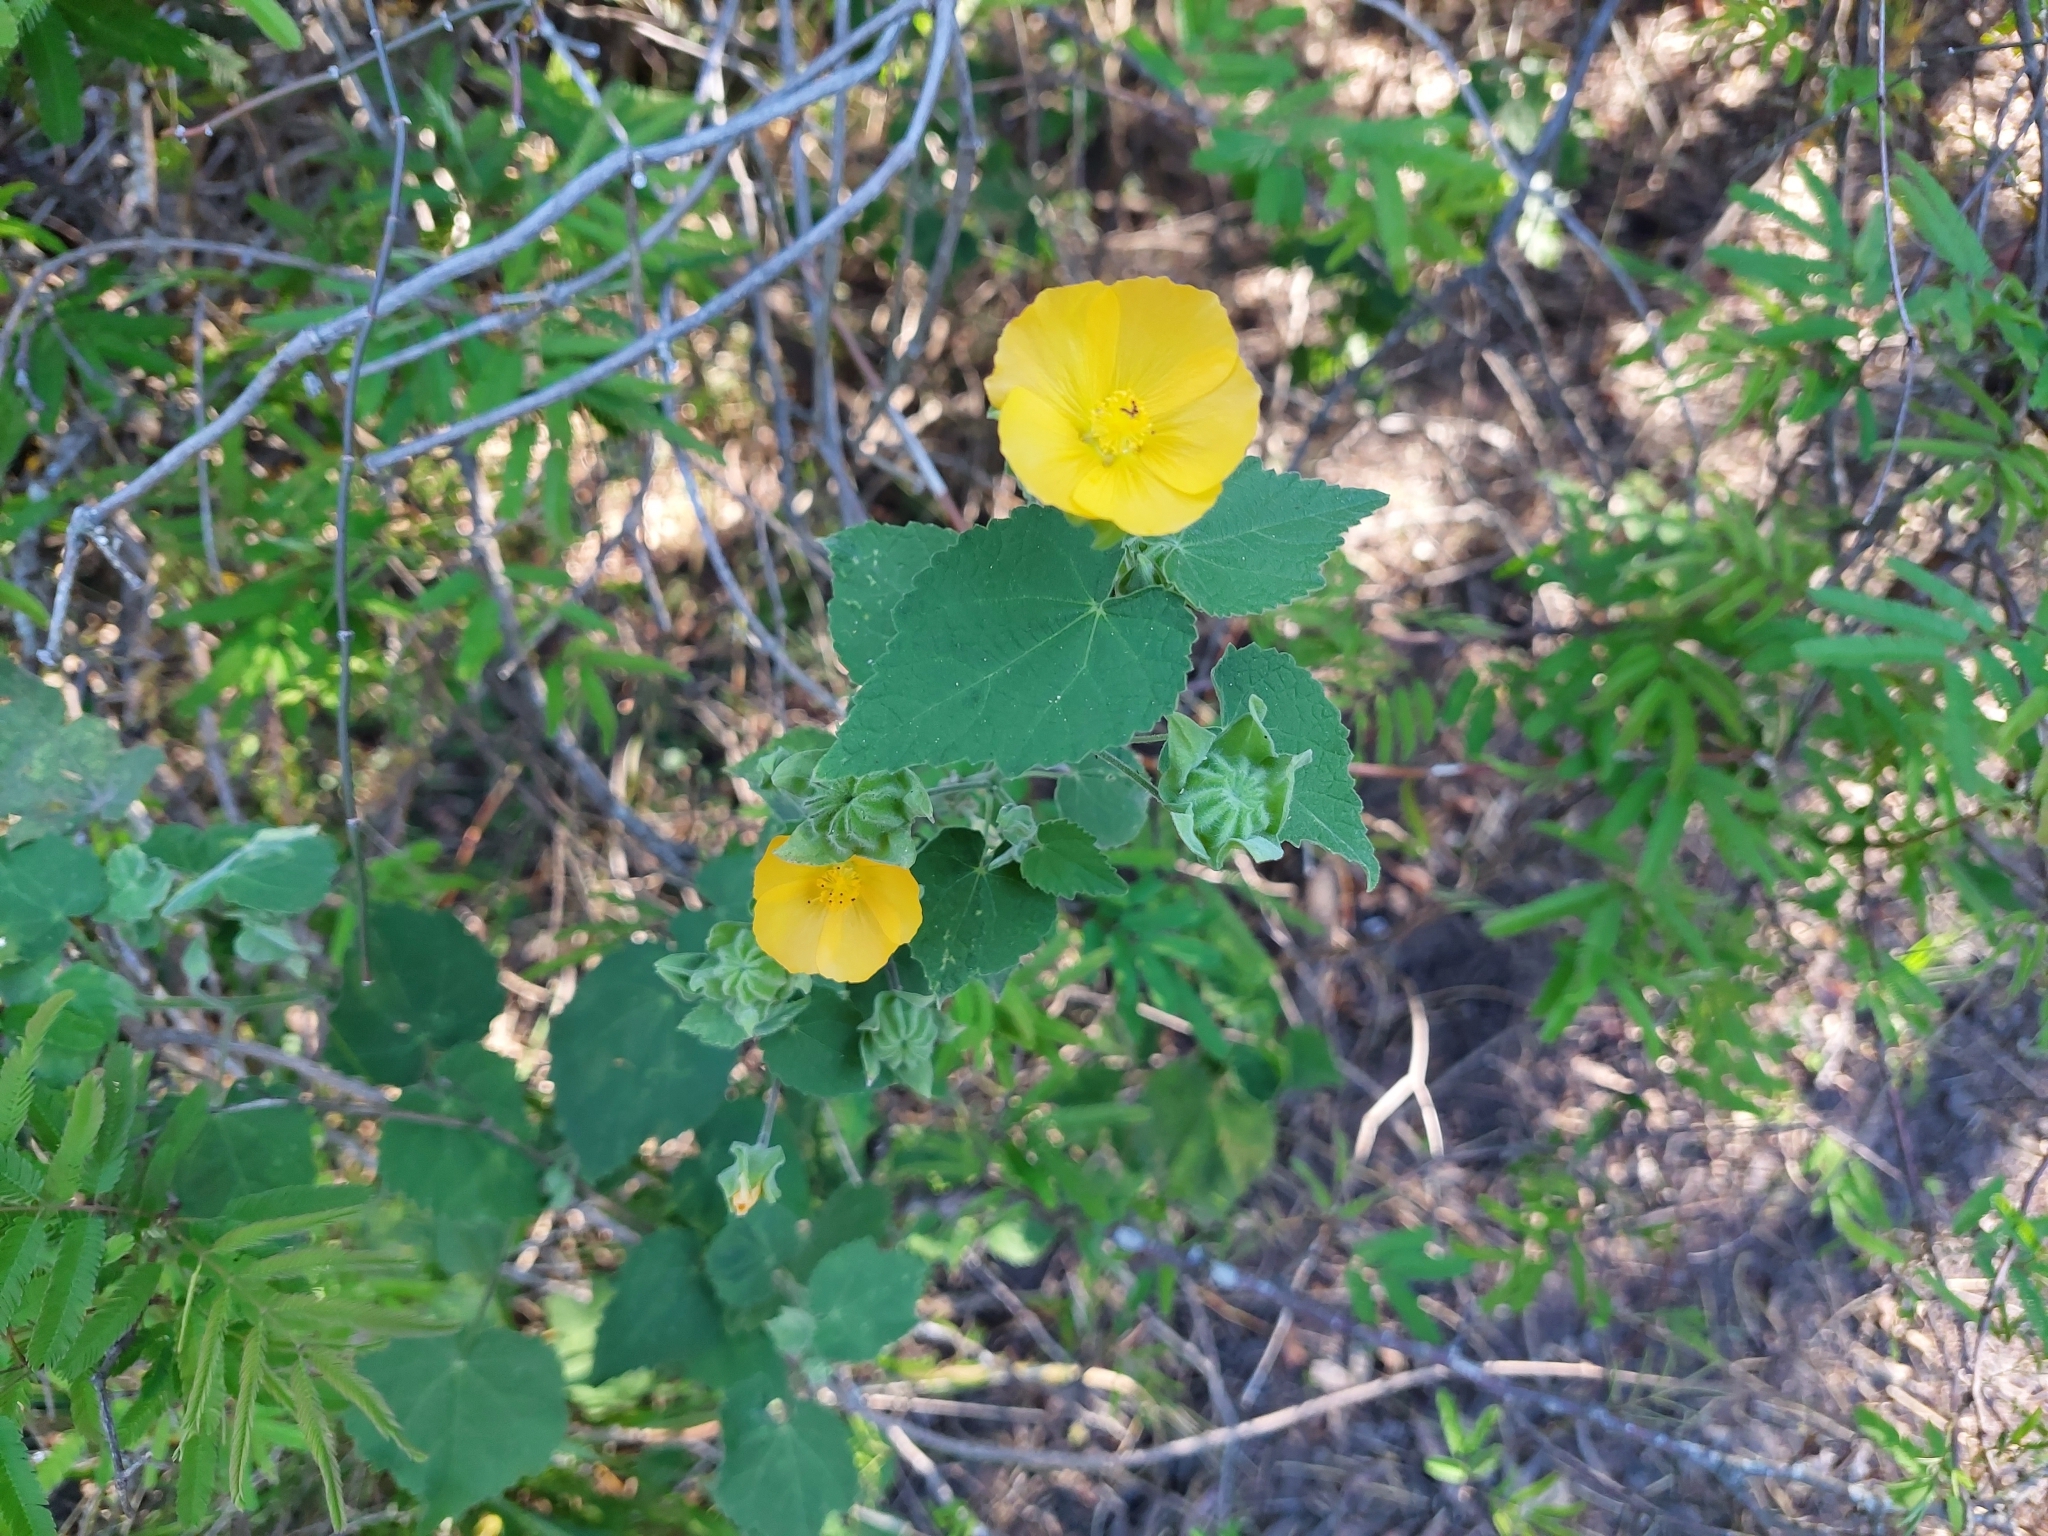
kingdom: Plantae
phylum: Tracheophyta
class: Magnoliopsida
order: Malvales
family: Malvaceae
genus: Abutilon
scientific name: Abutilon grandifolium
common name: Hairy abutilon
